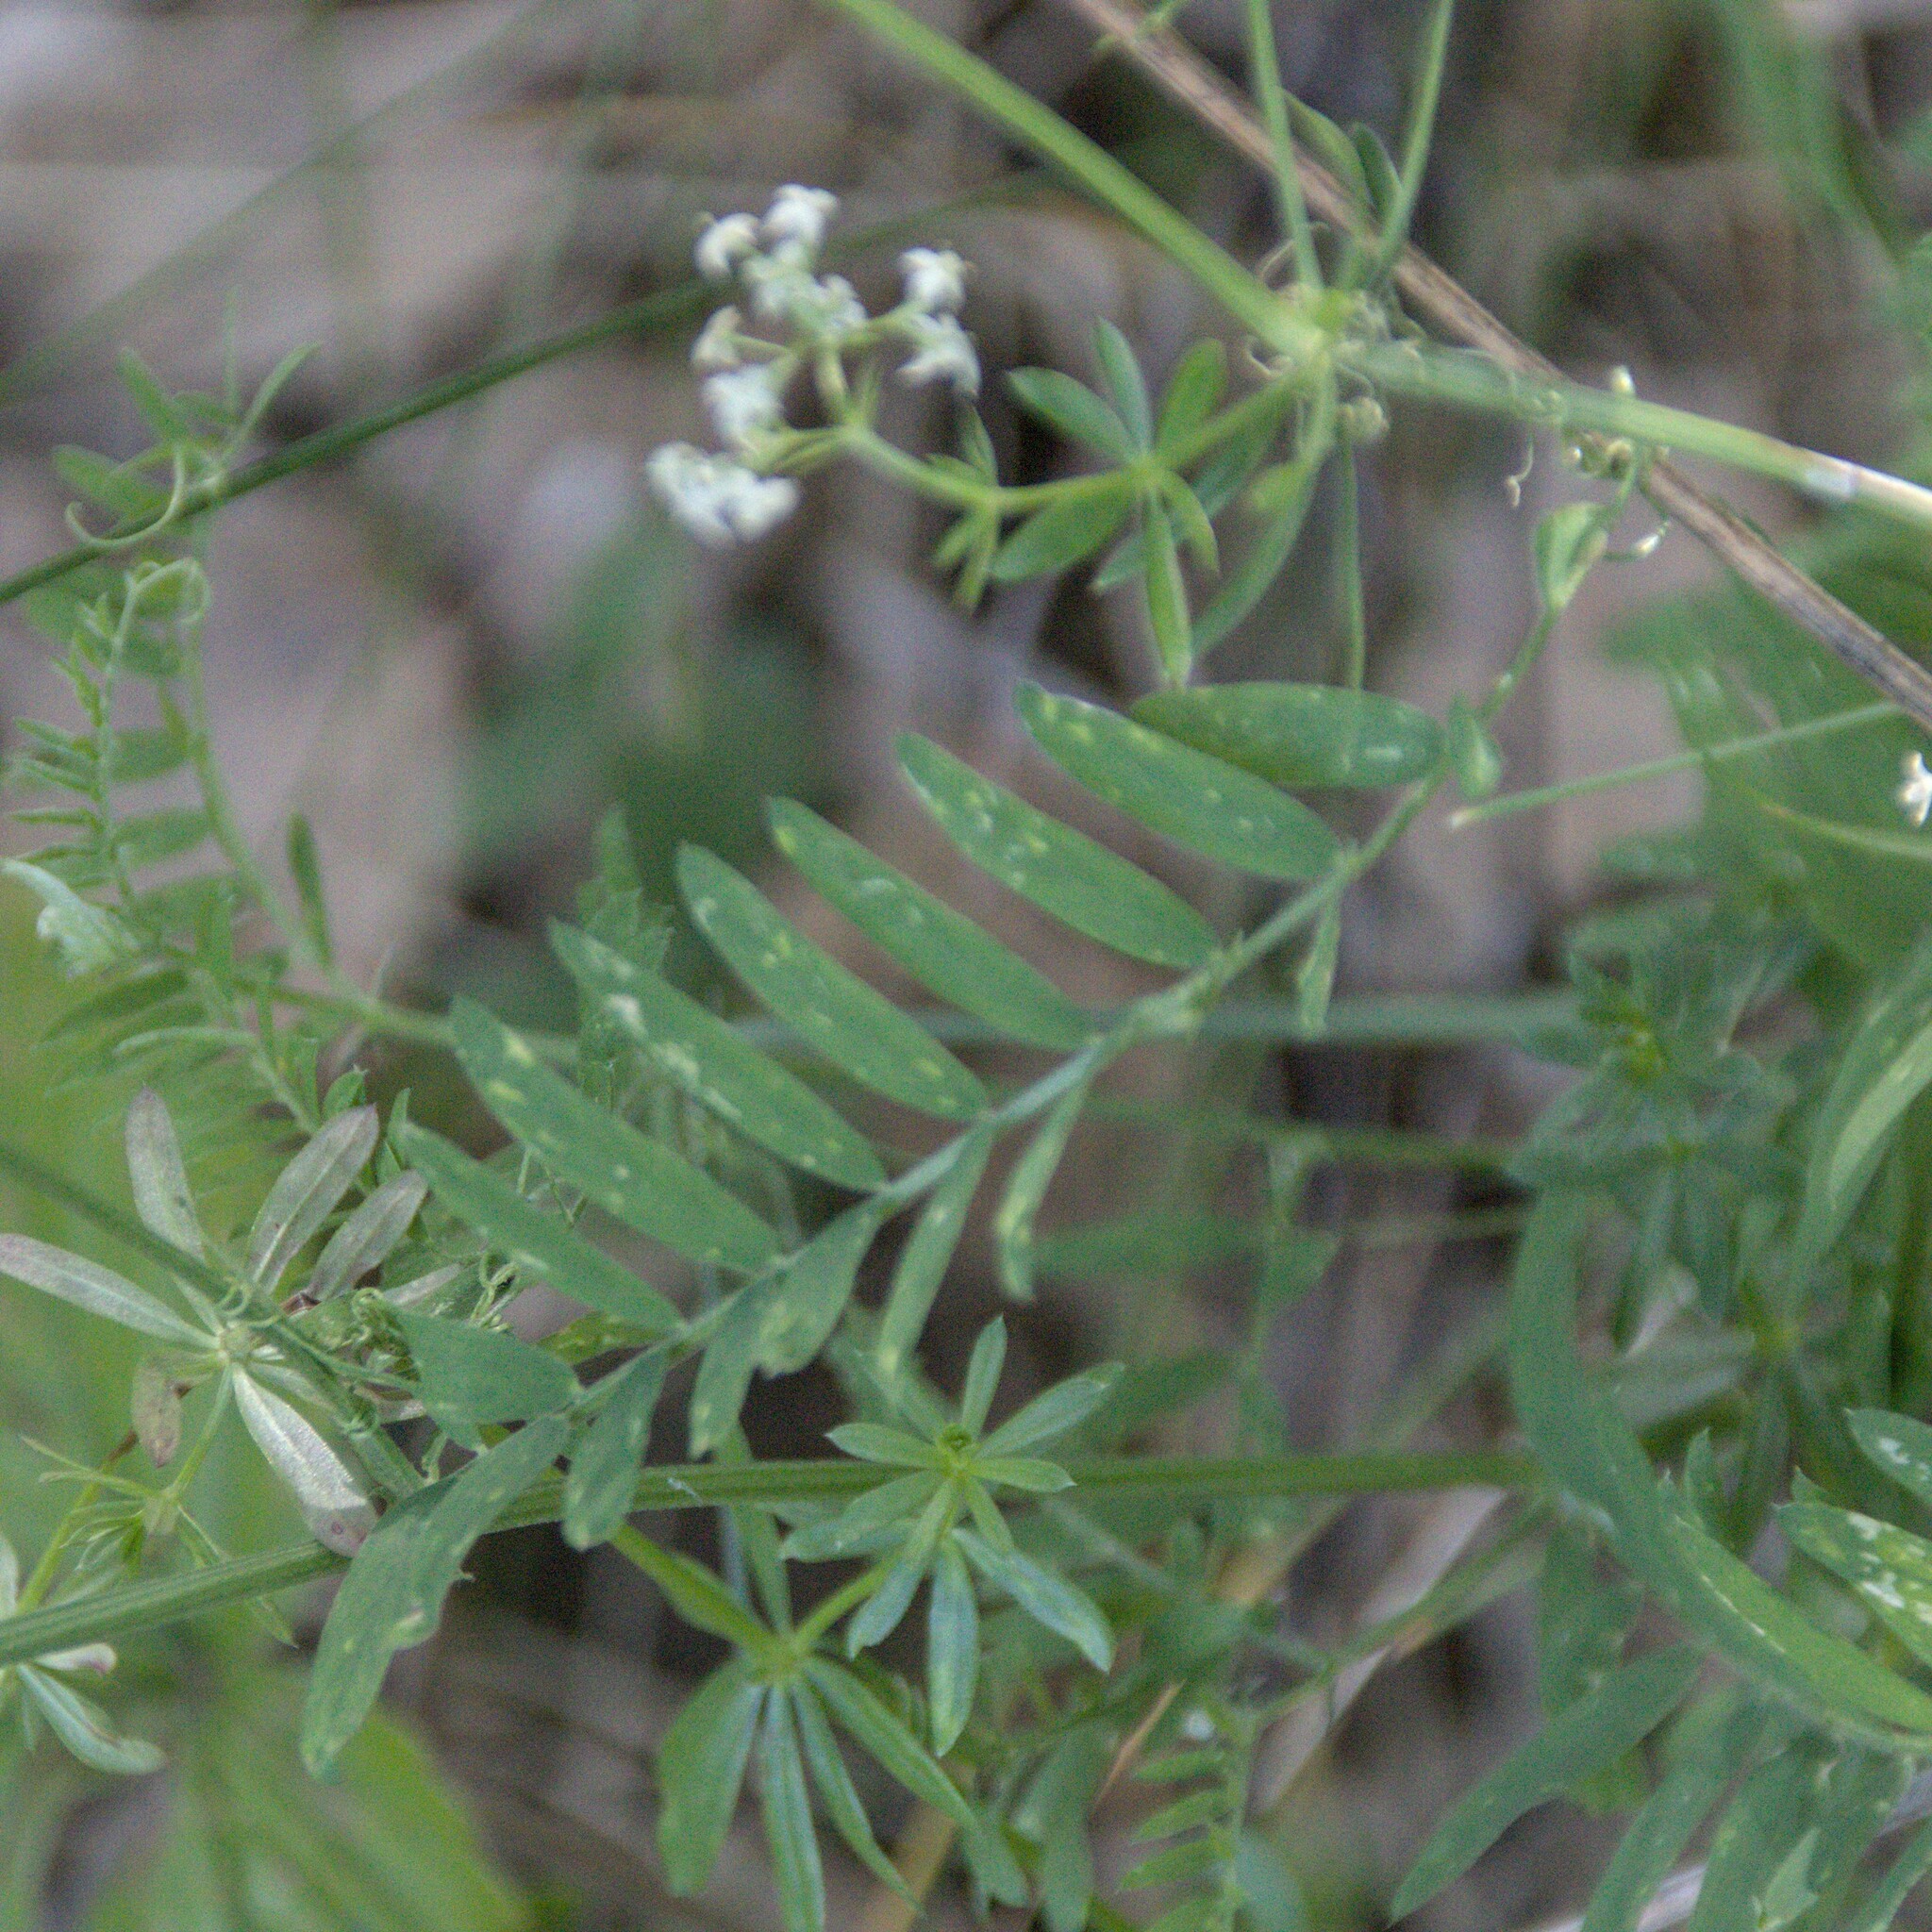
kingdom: Plantae
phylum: Tracheophyta
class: Magnoliopsida
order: Fabales
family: Fabaceae
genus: Vicia
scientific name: Vicia cracca
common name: Bird vetch
